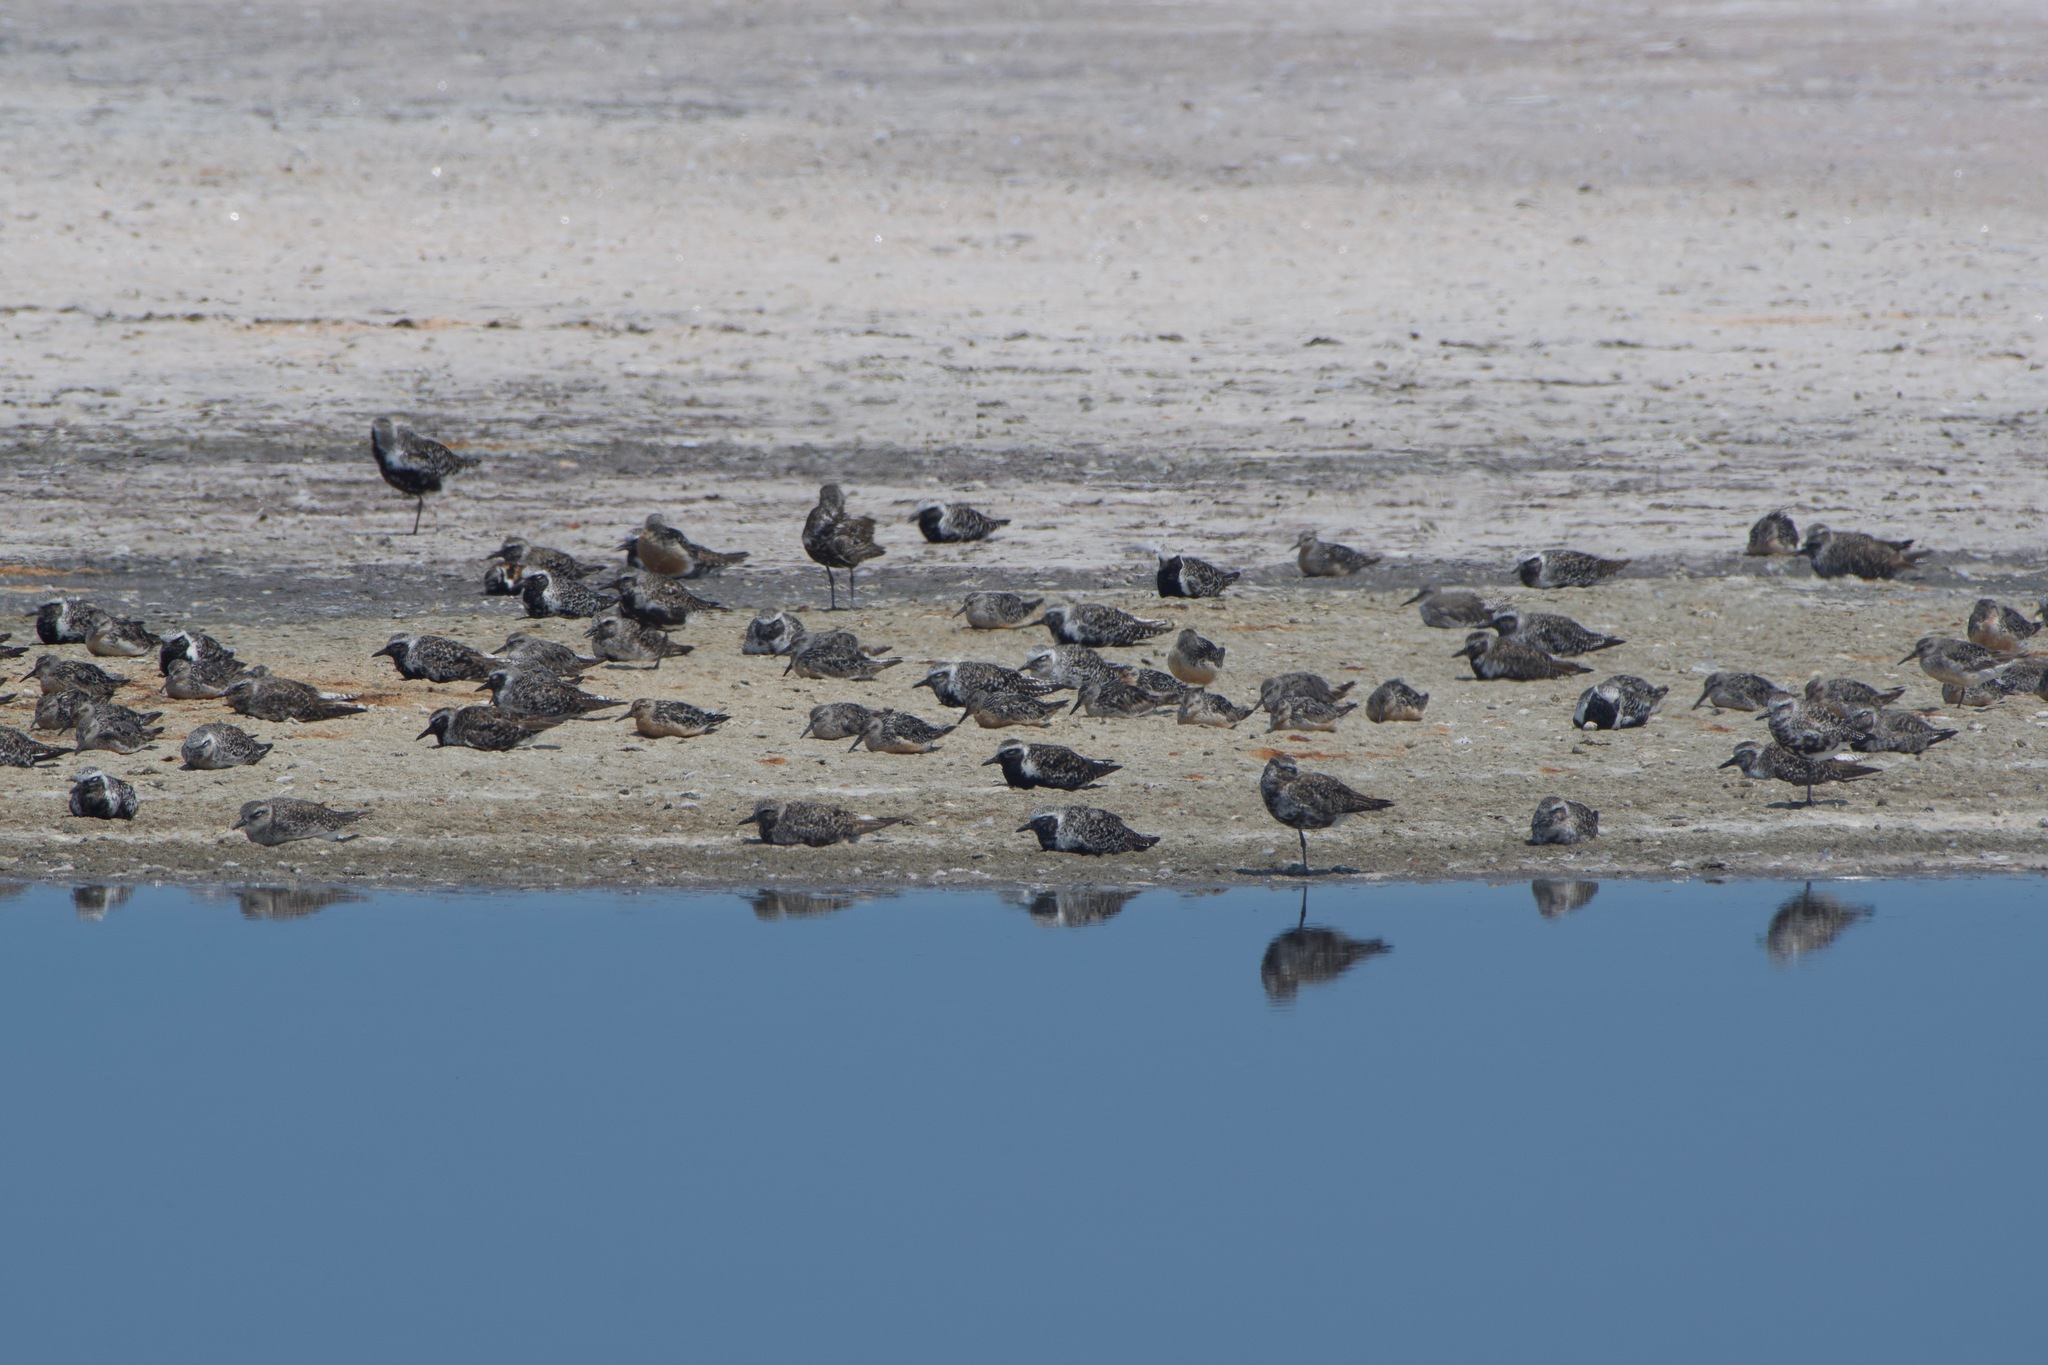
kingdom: Animalia
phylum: Chordata
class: Aves
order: Charadriiformes
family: Charadriidae
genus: Pluvialis
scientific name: Pluvialis squatarola
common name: Grey plover
